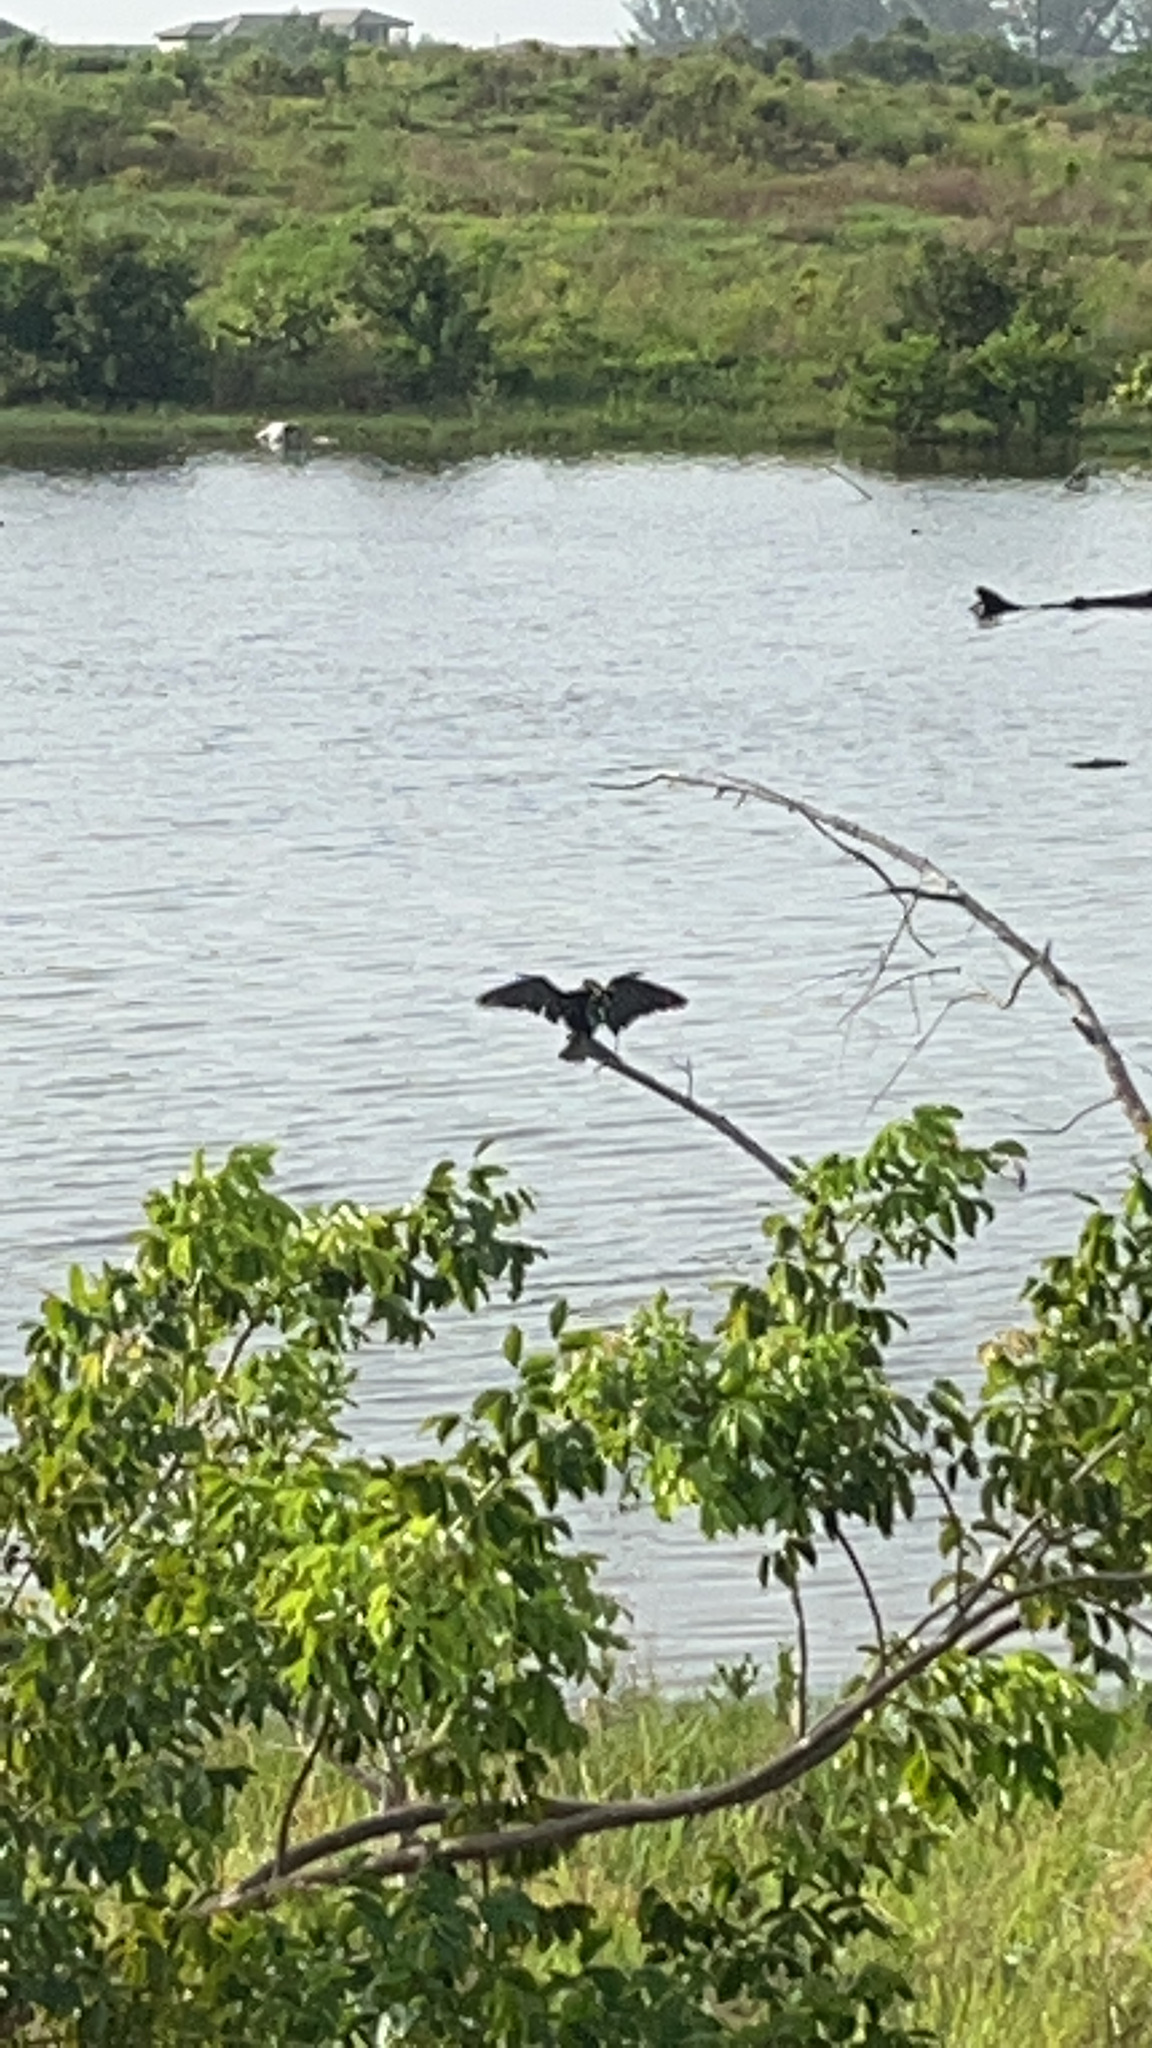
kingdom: Animalia
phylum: Chordata
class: Aves
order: Suliformes
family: Anhingidae
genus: Anhinga
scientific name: Anhinga anhinga
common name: Anhinga
